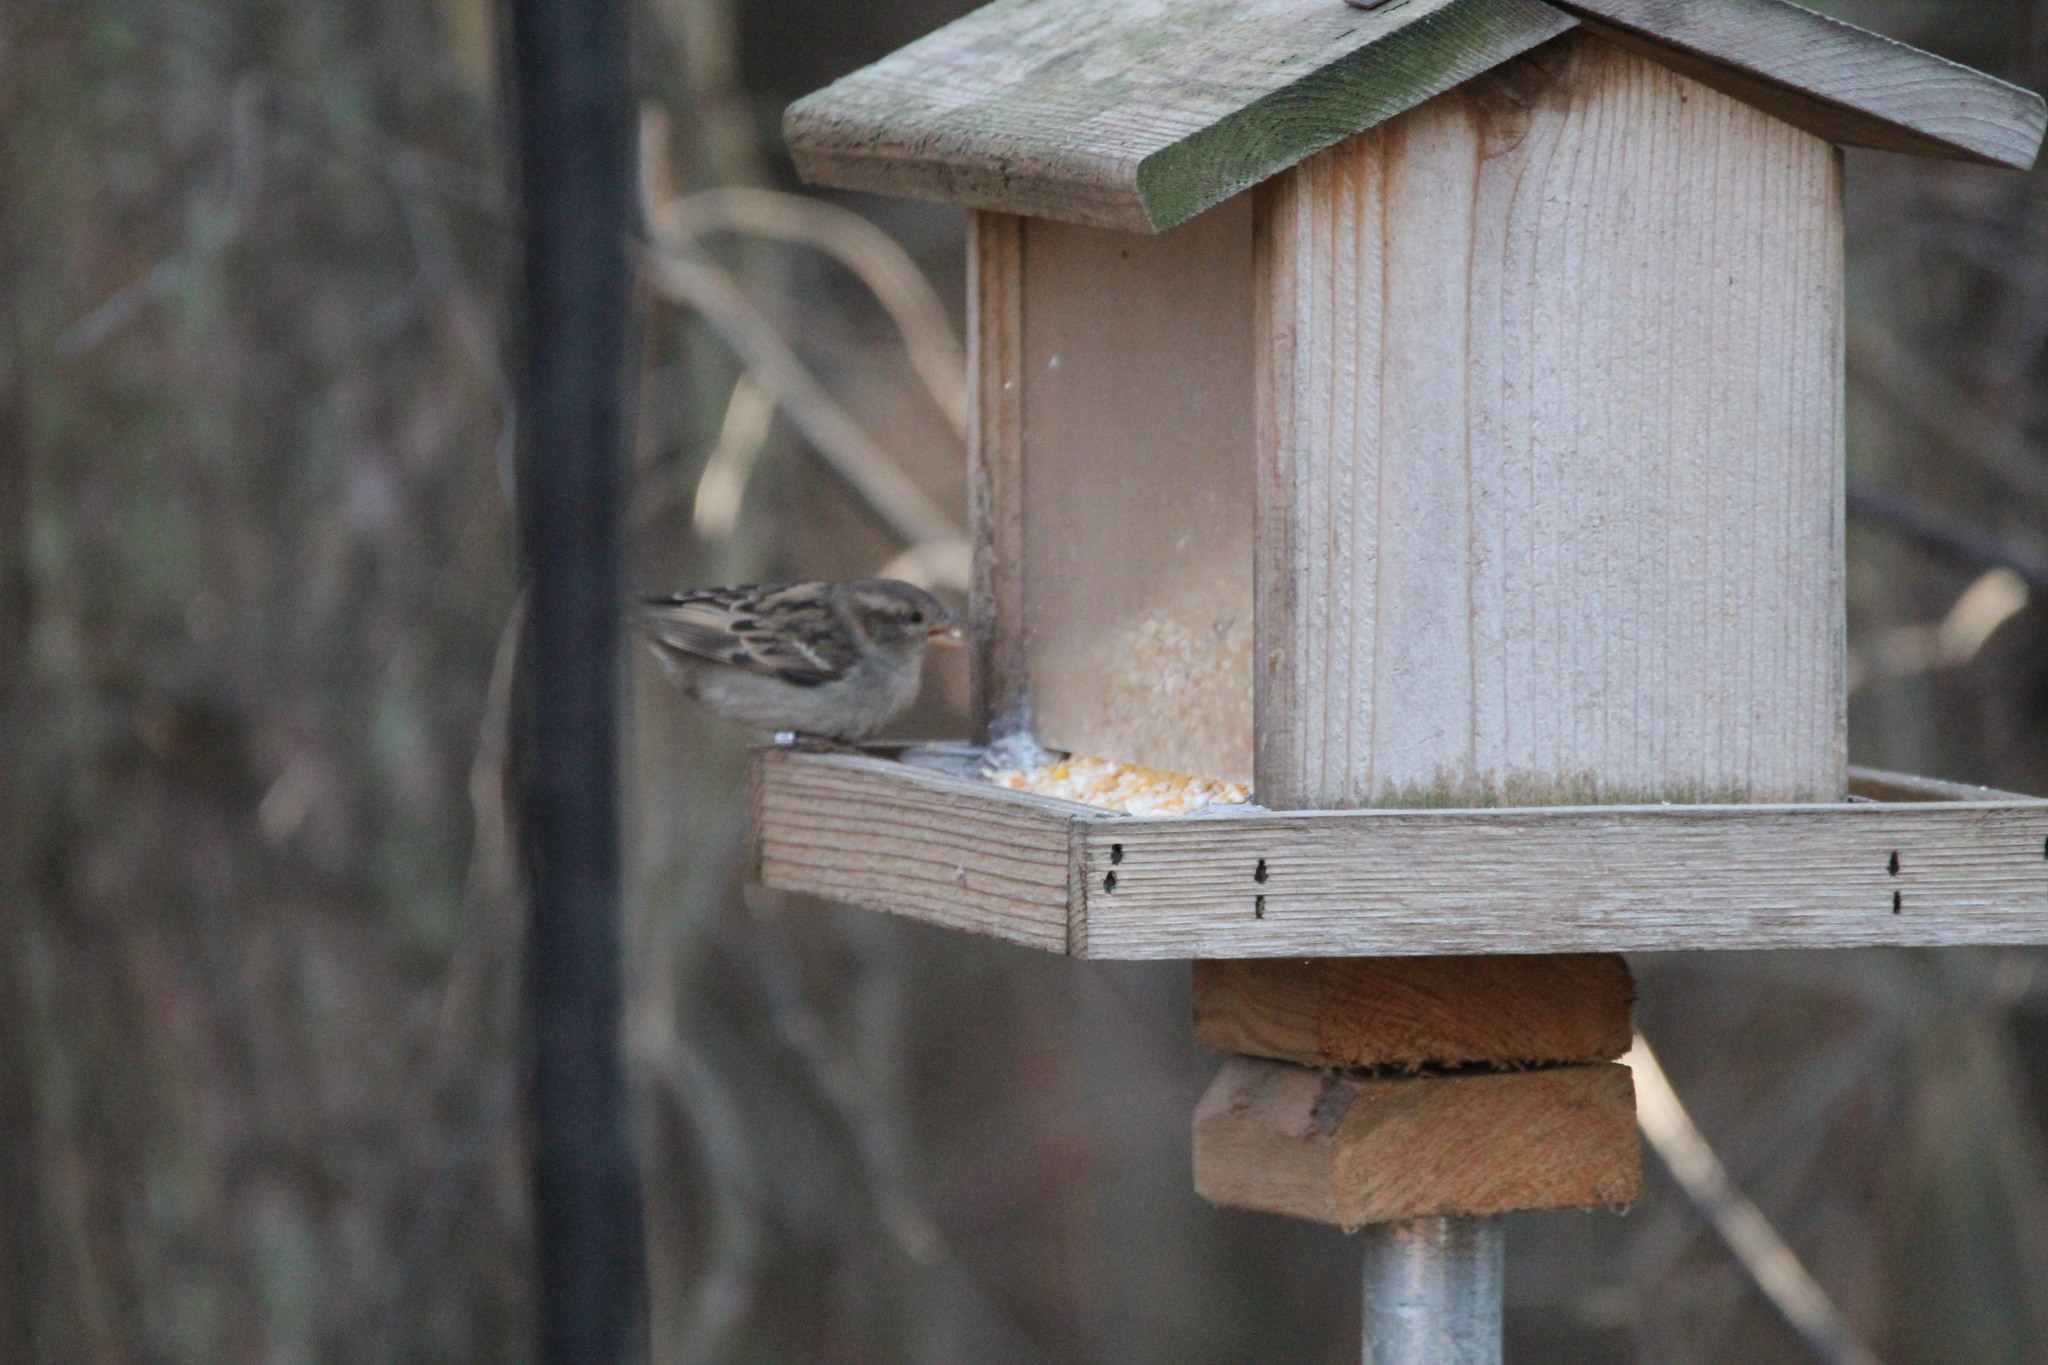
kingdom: Animalia
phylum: Chordata
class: Aves
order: Passeriformes
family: Passeridae
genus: Passer
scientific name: Passer domesticus
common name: House sparrow
